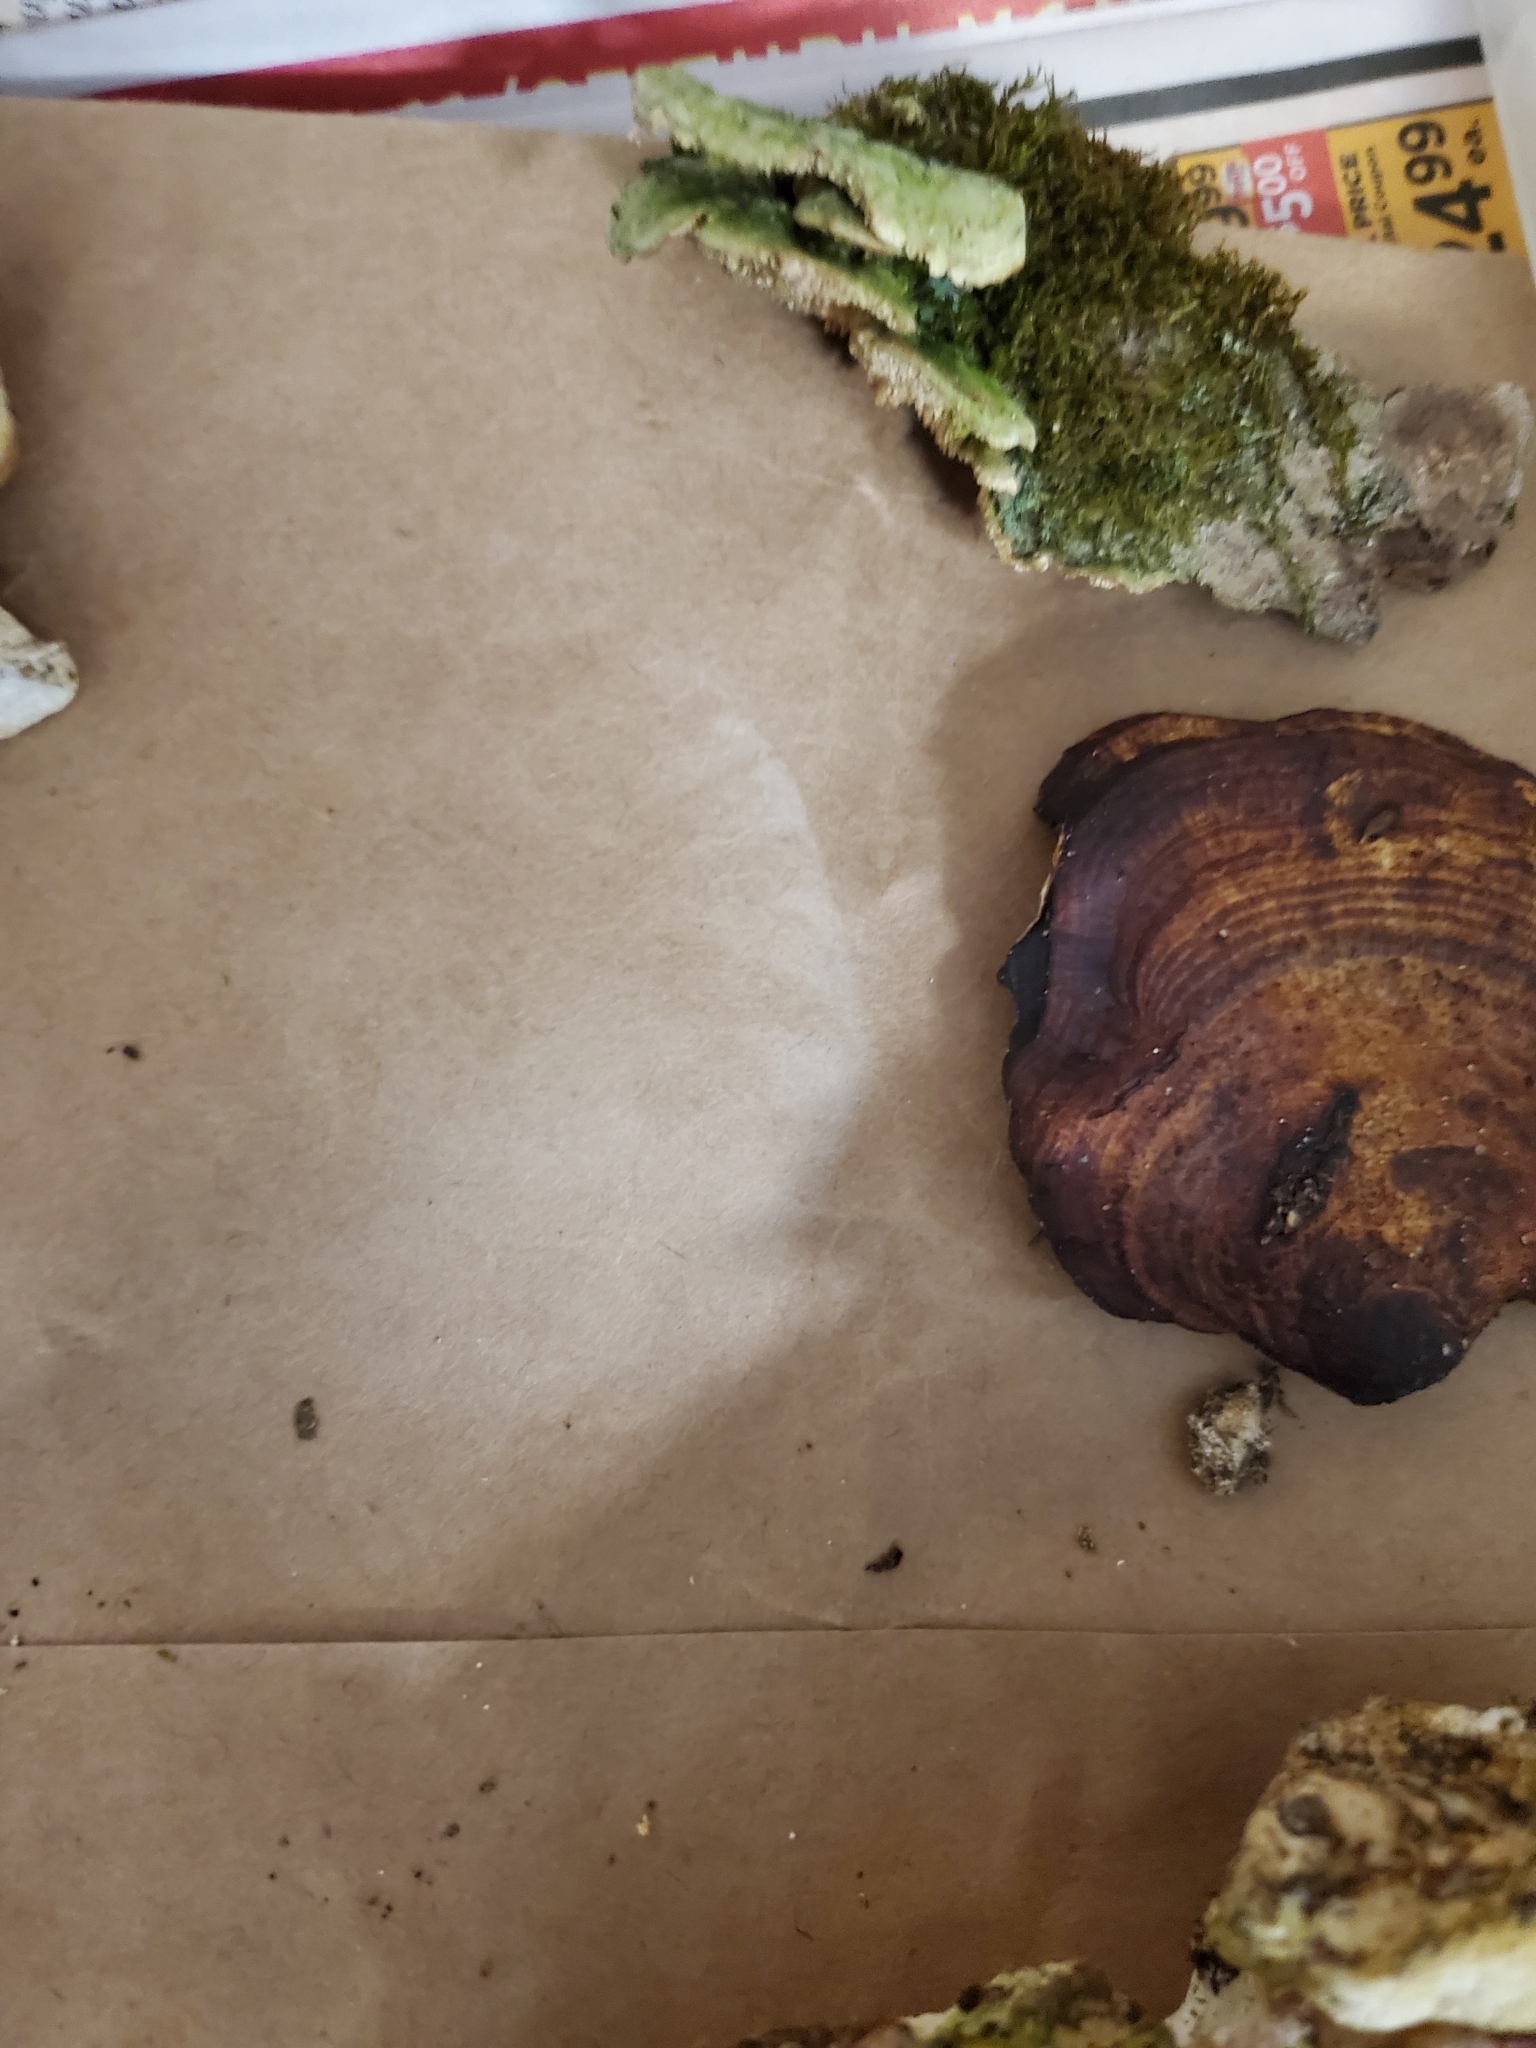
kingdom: Fungi
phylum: Basidiomycota
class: Agaricomycetes
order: Polyporales
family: Polyporaceae
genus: Daedaleopsis
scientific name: Daedaleopsis confragosa
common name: Blushing bracket
